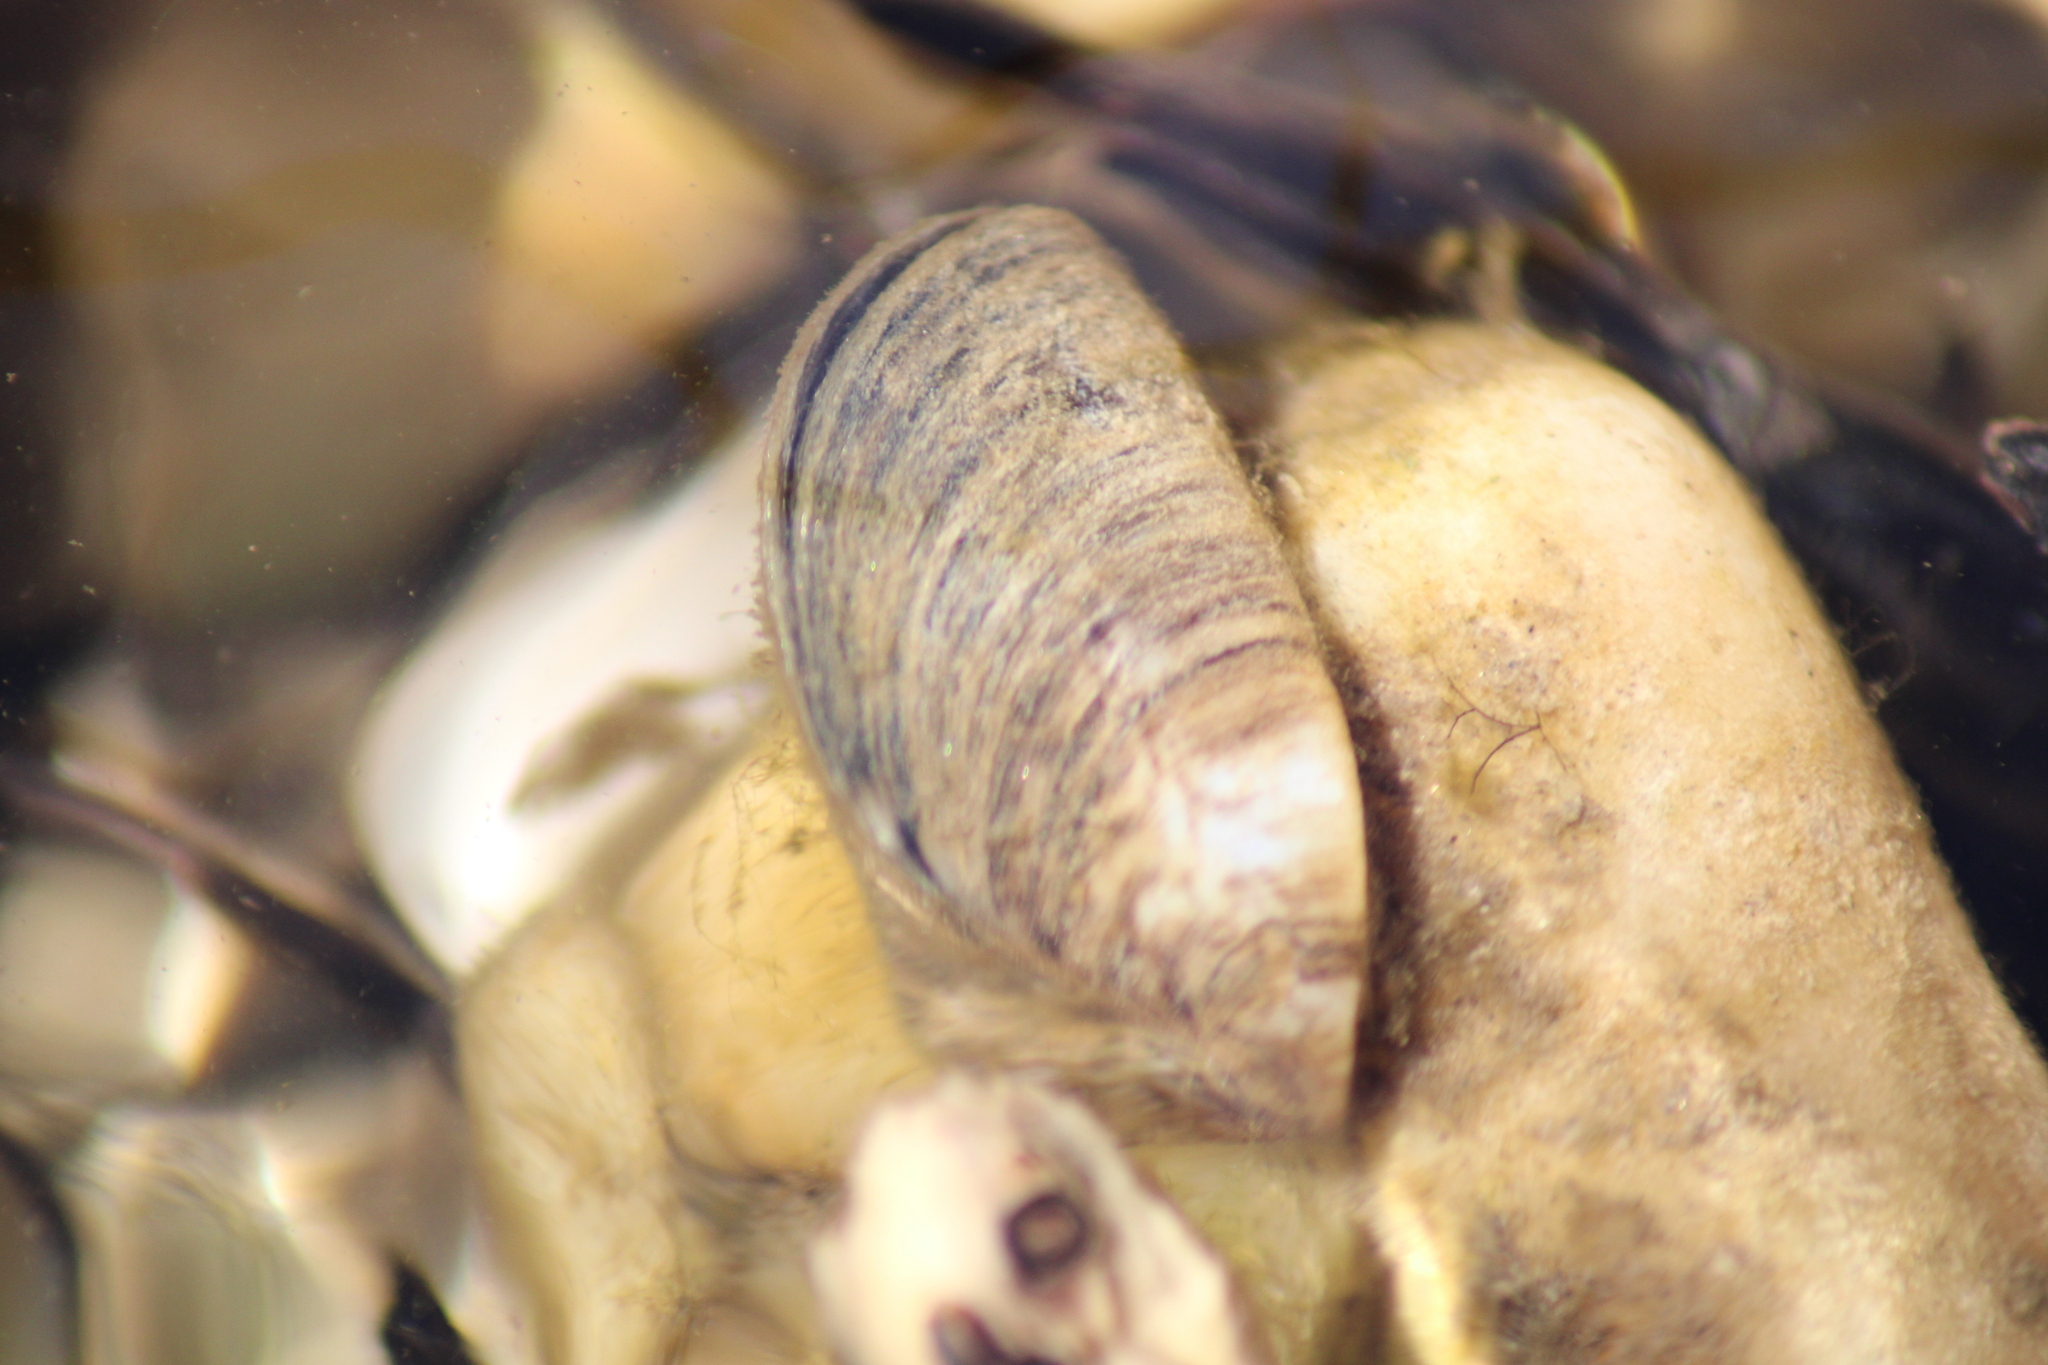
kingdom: Animalia
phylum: Mollusca
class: Bivalvia
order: Myida
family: Dreissenidae
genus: Dreissena
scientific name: Dreissena polymorpha
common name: Zebra mussel
